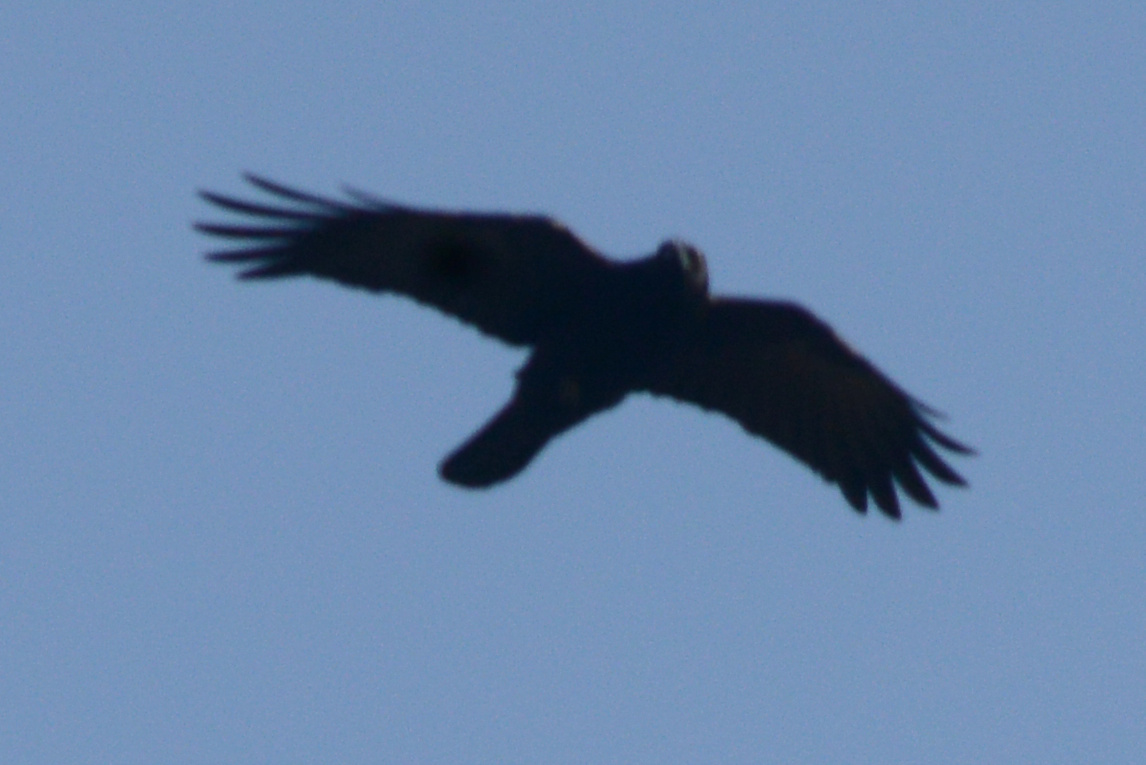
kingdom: Animalia
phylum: Chordata
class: Aves
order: Passeriformes
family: Corvidae
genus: Corvus
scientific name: Corvus brachyrhynchos
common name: American crow
